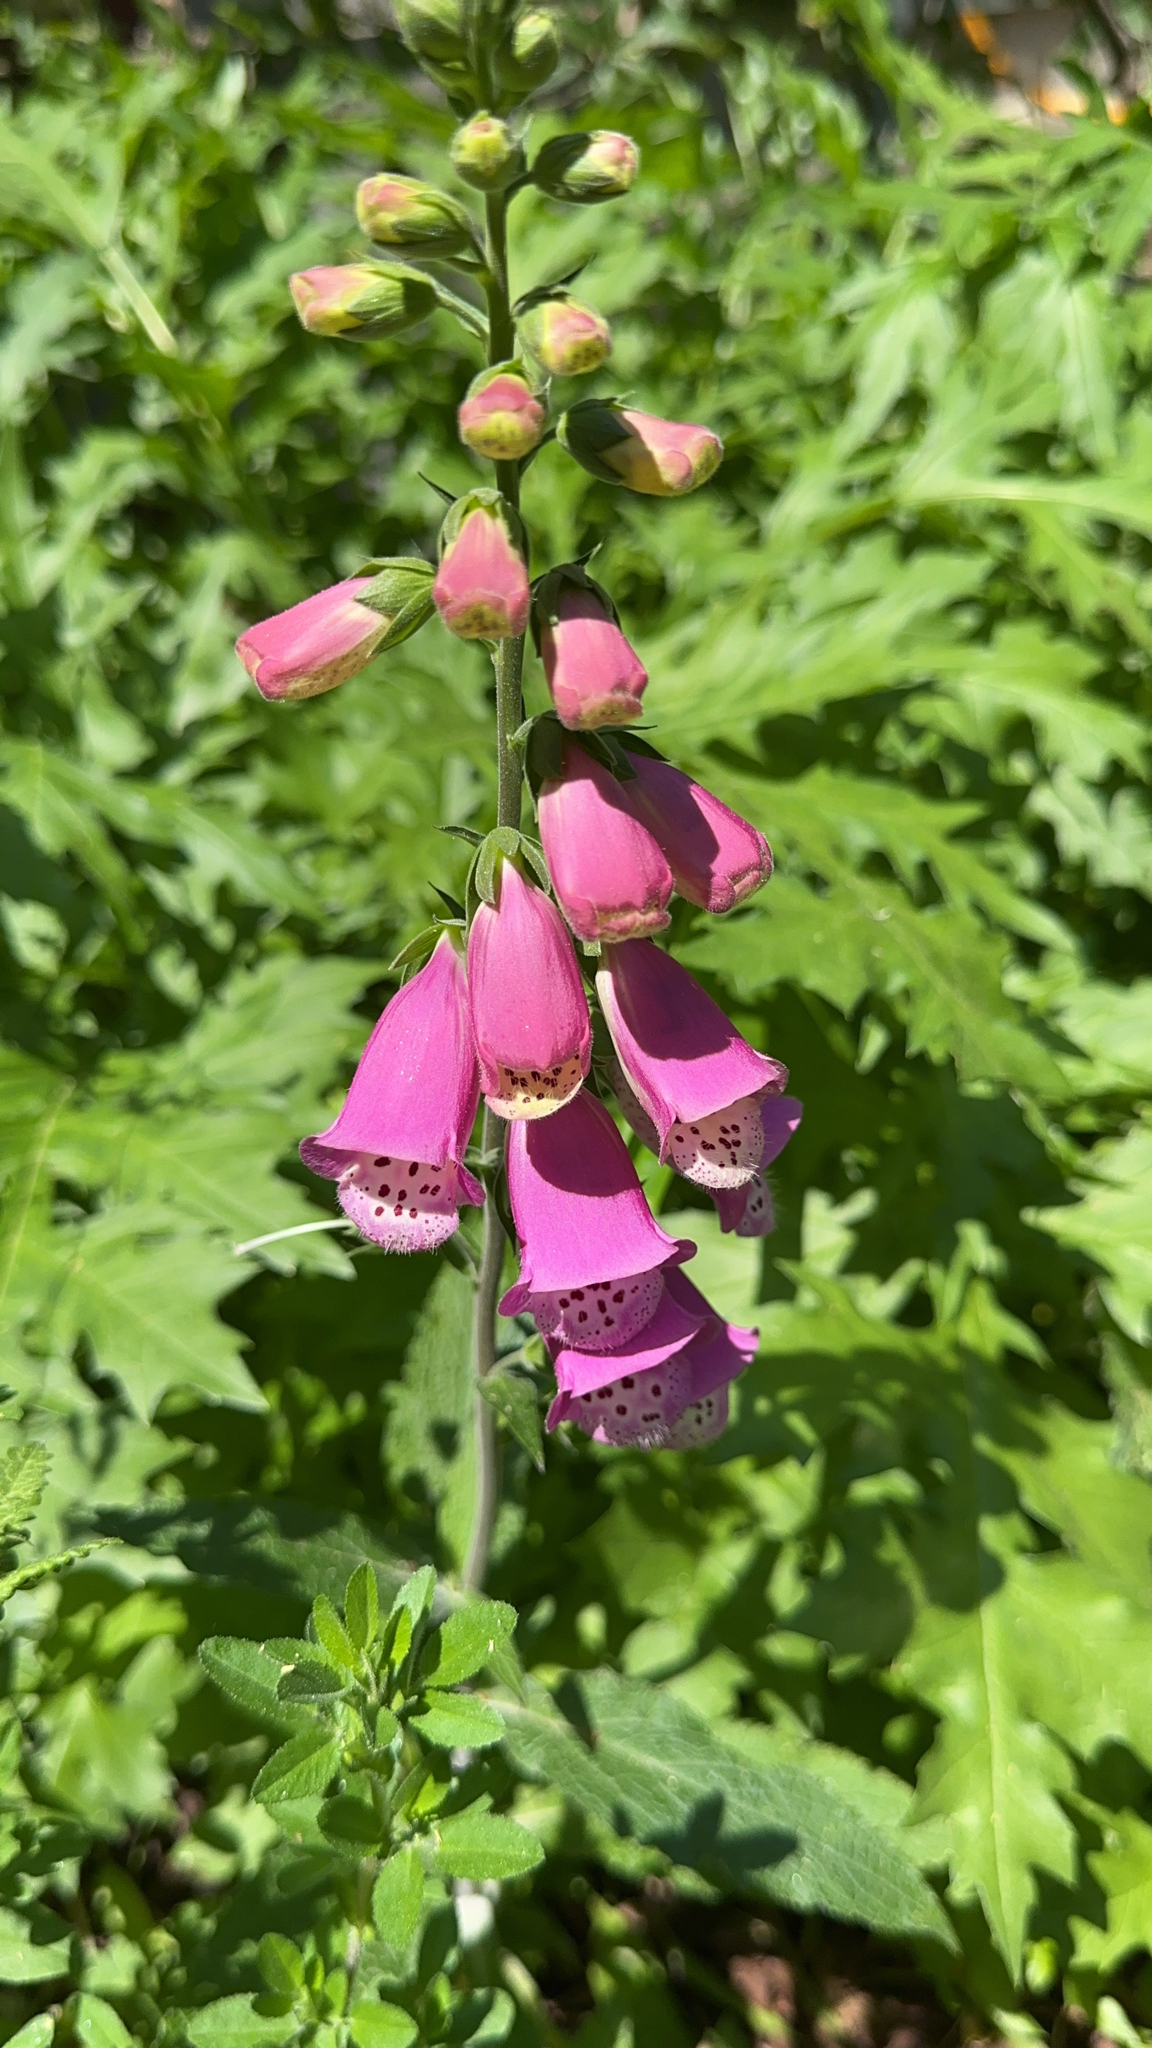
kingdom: Plantae
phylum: Tracheophyta
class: Magnoliopsida
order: Lamiales
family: Plantaginaceae
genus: Digitalis
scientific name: Digitalis purpurea
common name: Foxglove
